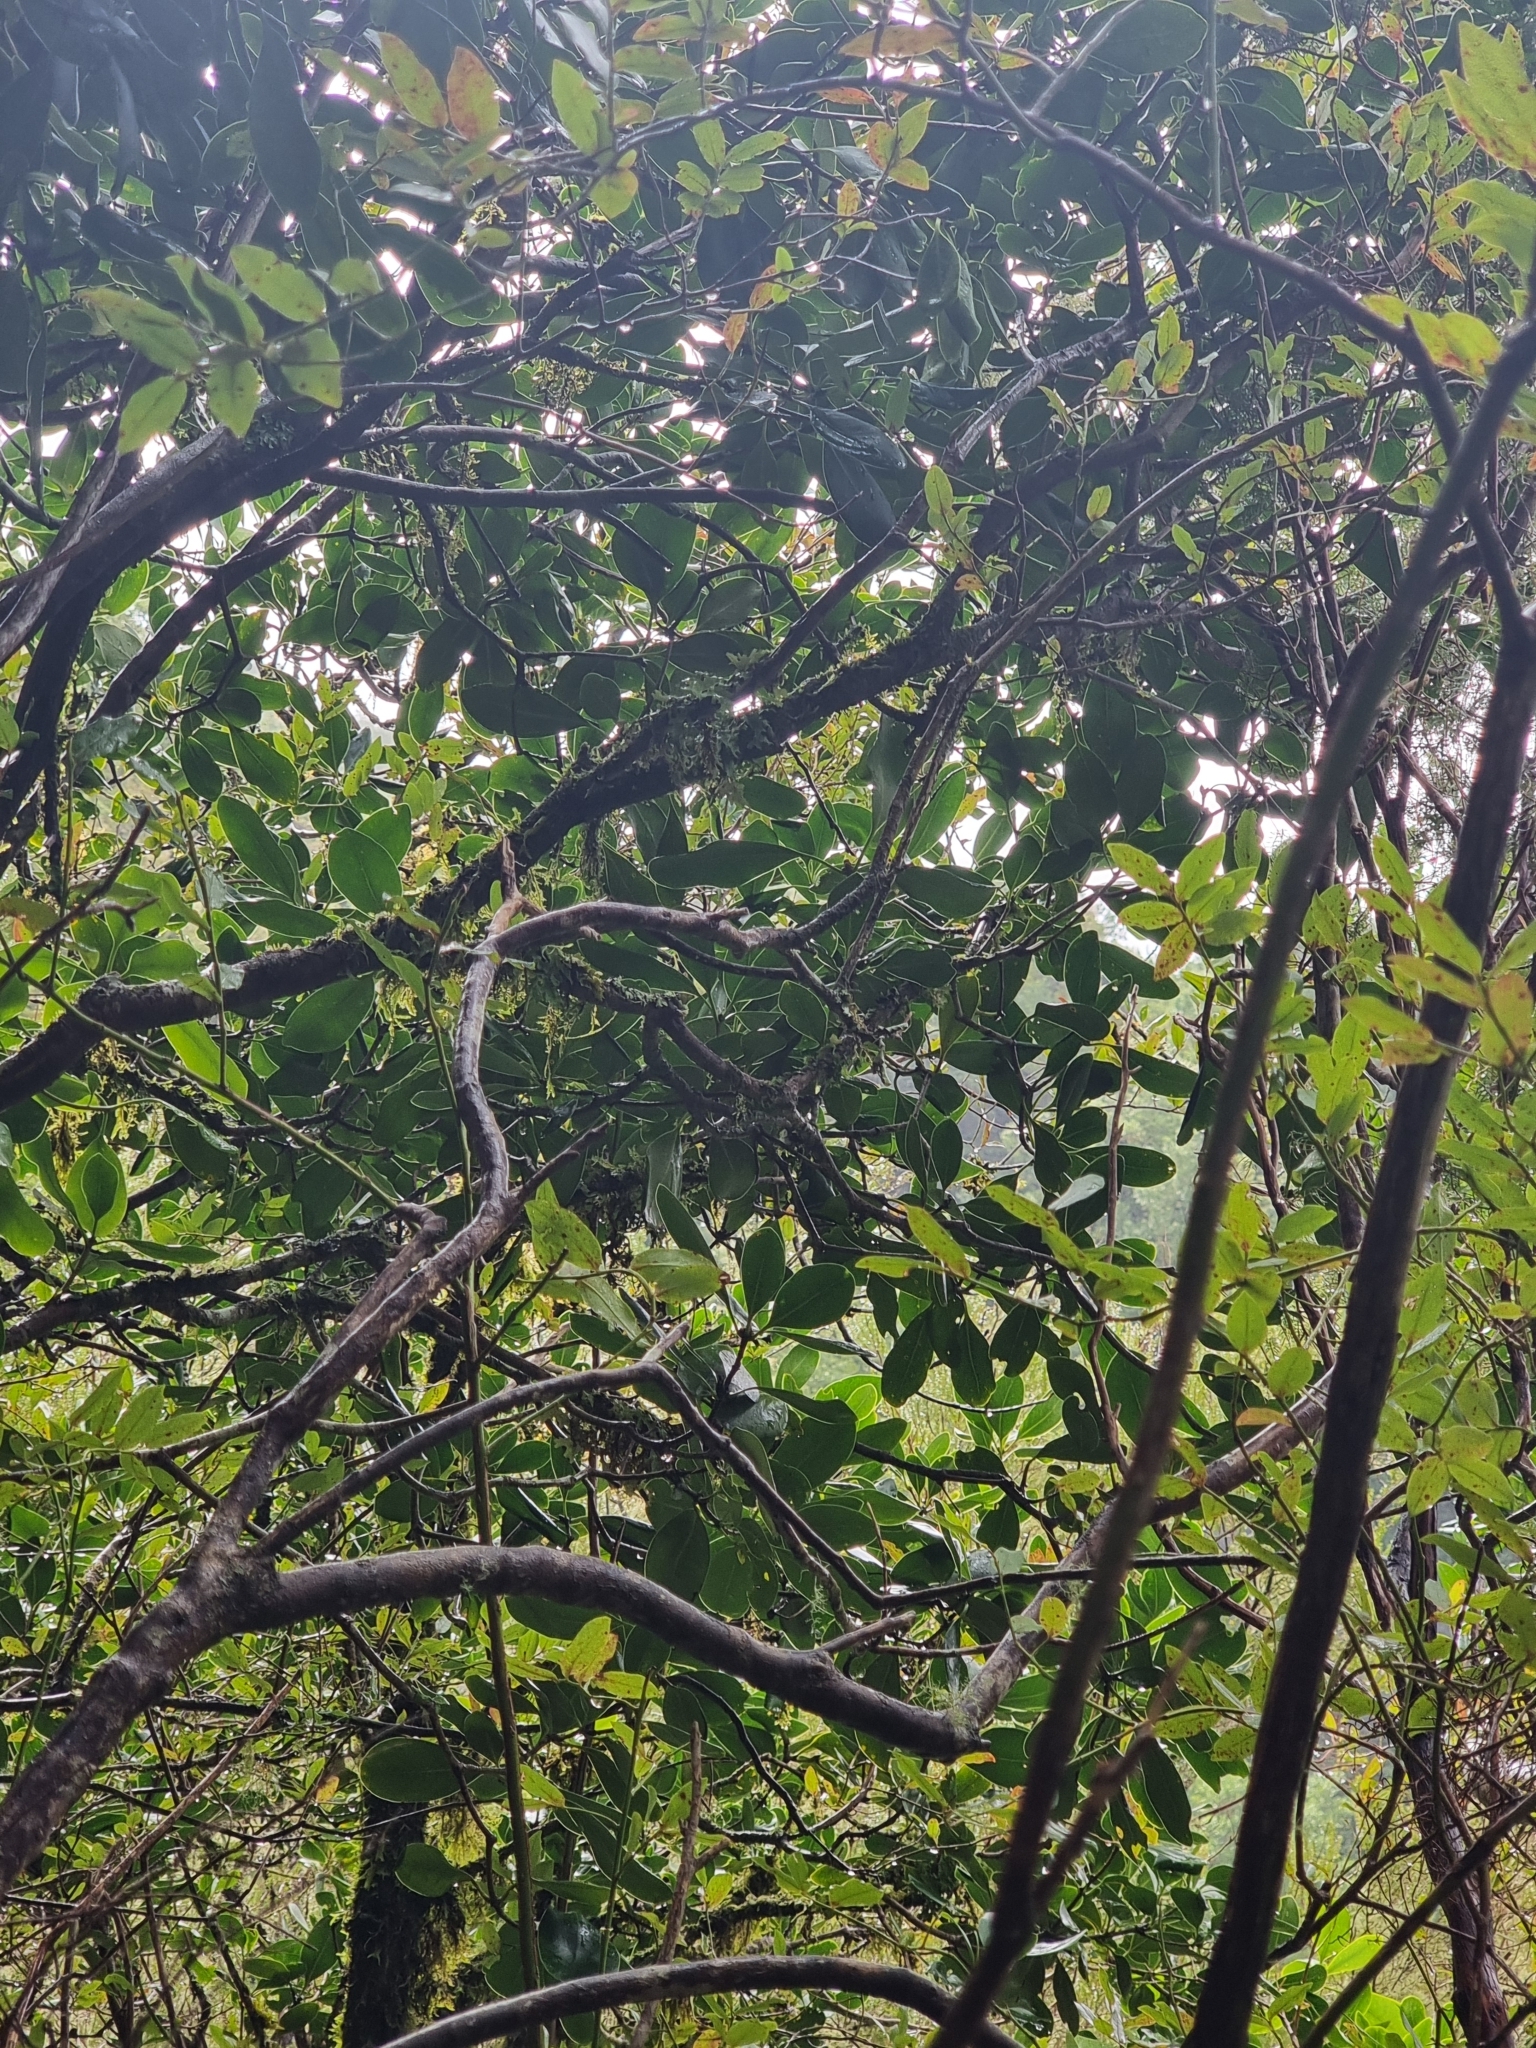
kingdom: Plantae
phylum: Tracheophyta
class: Magnoliopsida
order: Apiales
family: Pittosporaceae
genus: Pittosporum
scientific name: Pittosporum coriaceum
